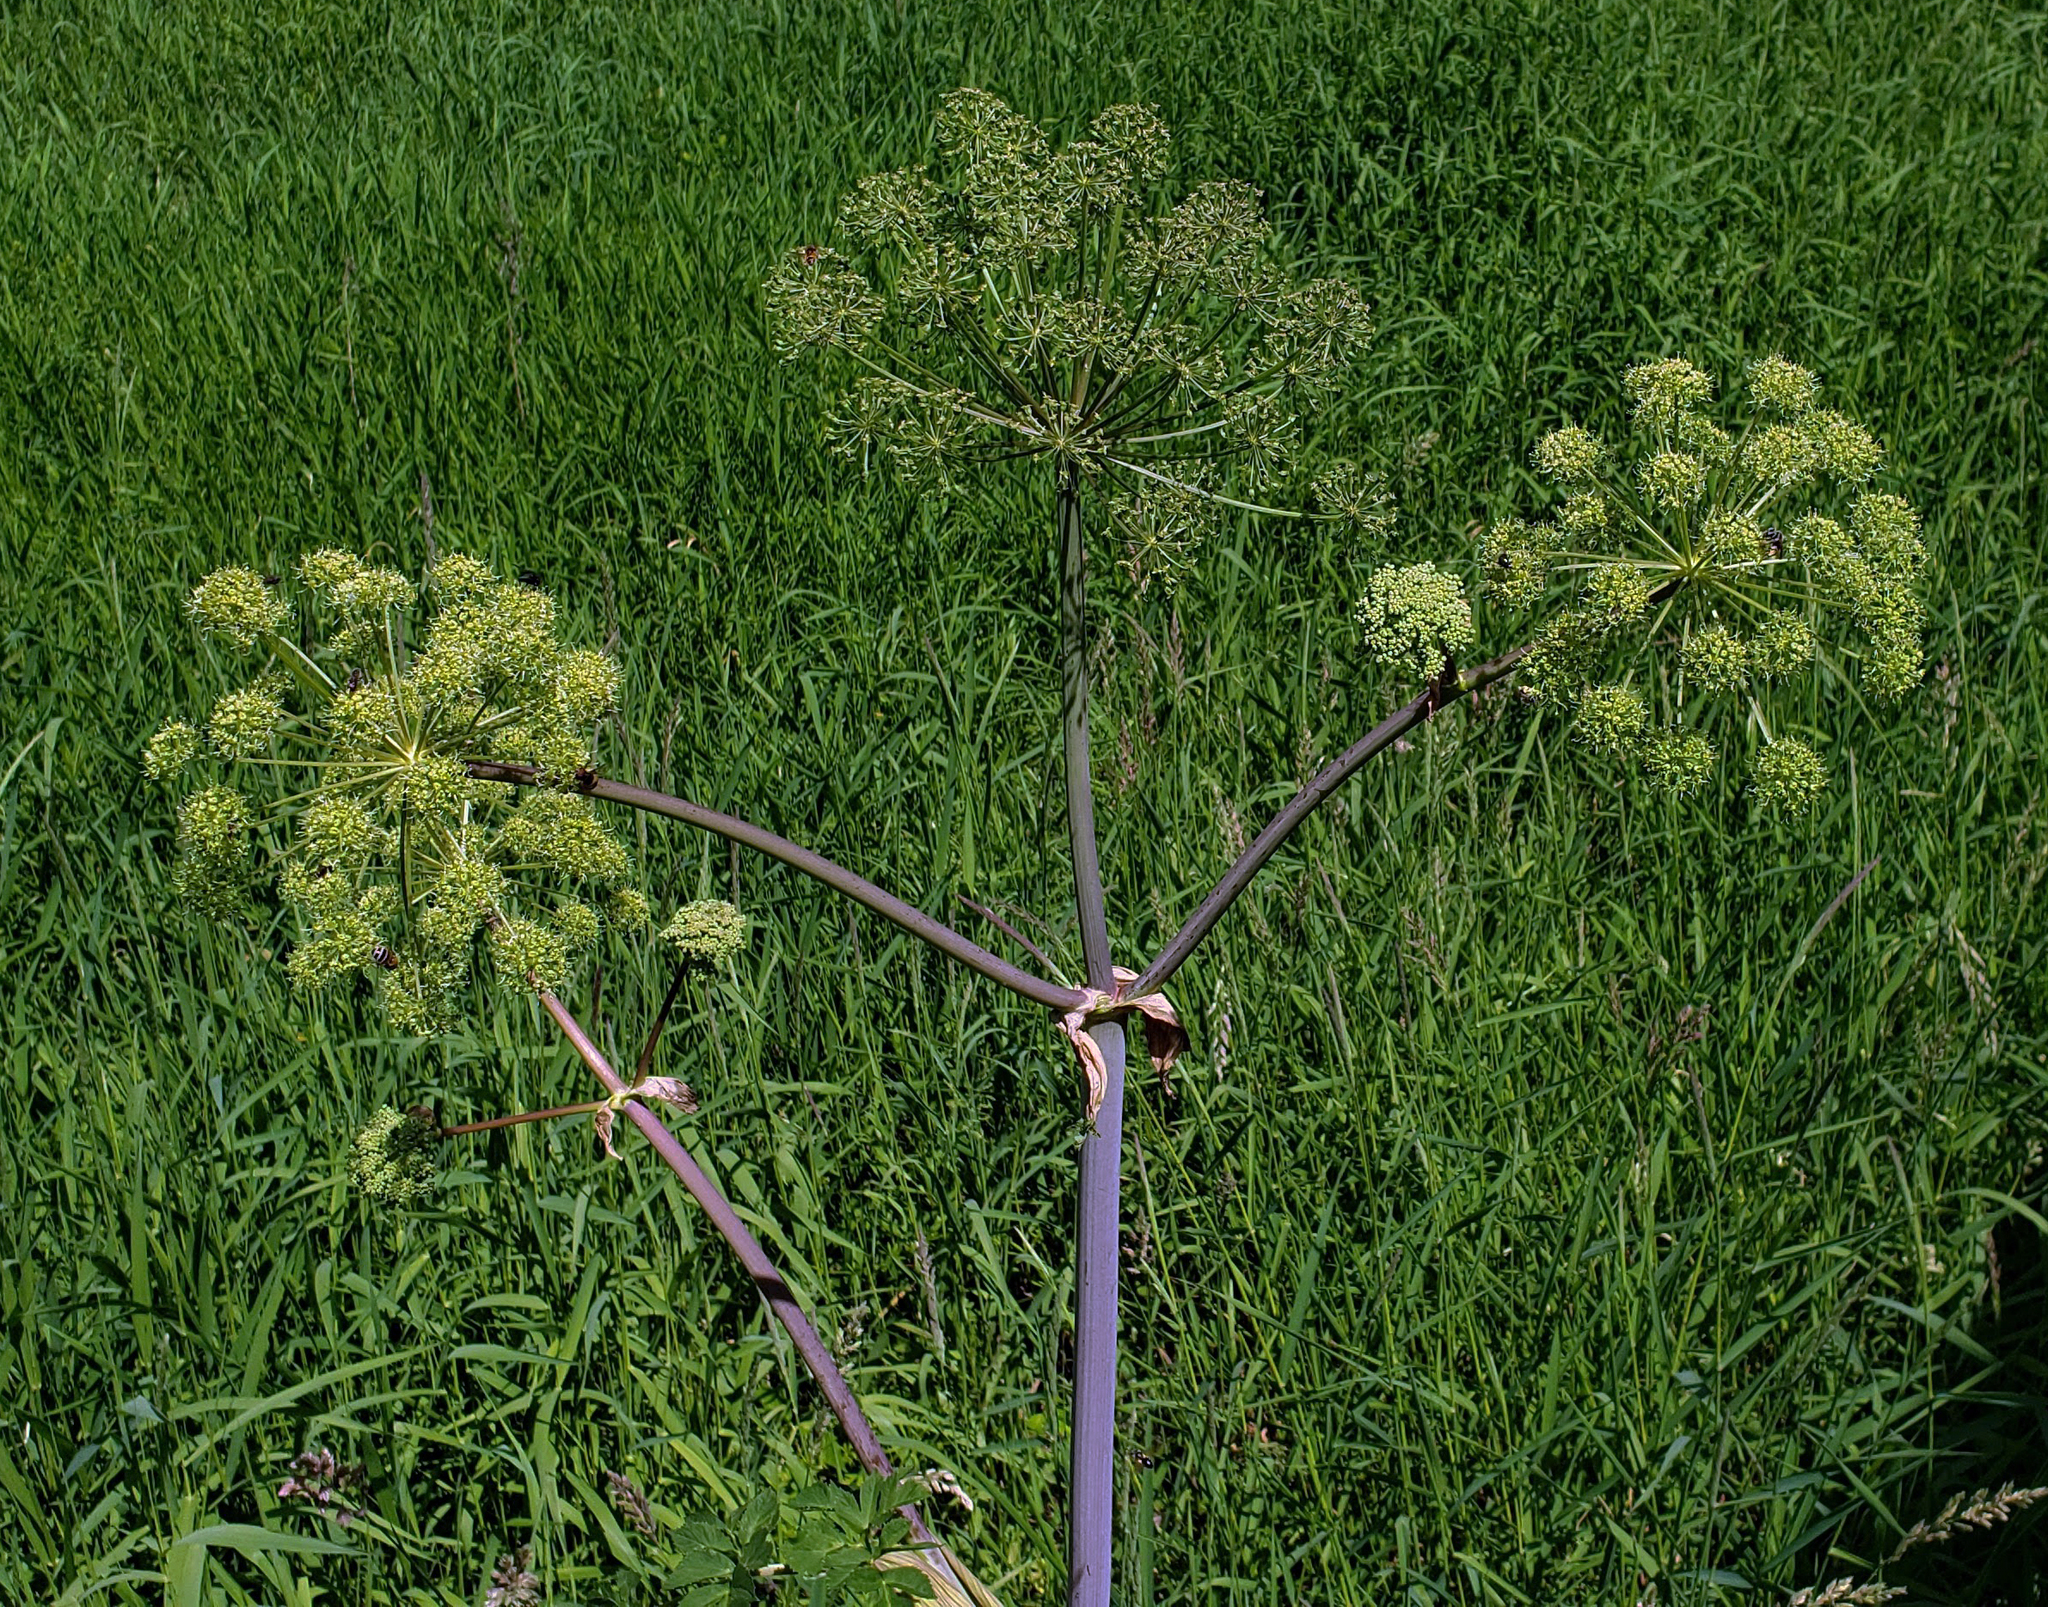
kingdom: Plantae
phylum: Tracheophyta
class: Magnoliopsida
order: Apiales
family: Apiaceae
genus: Angelica
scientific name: Angelica atropurpurea
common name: Great angelica
